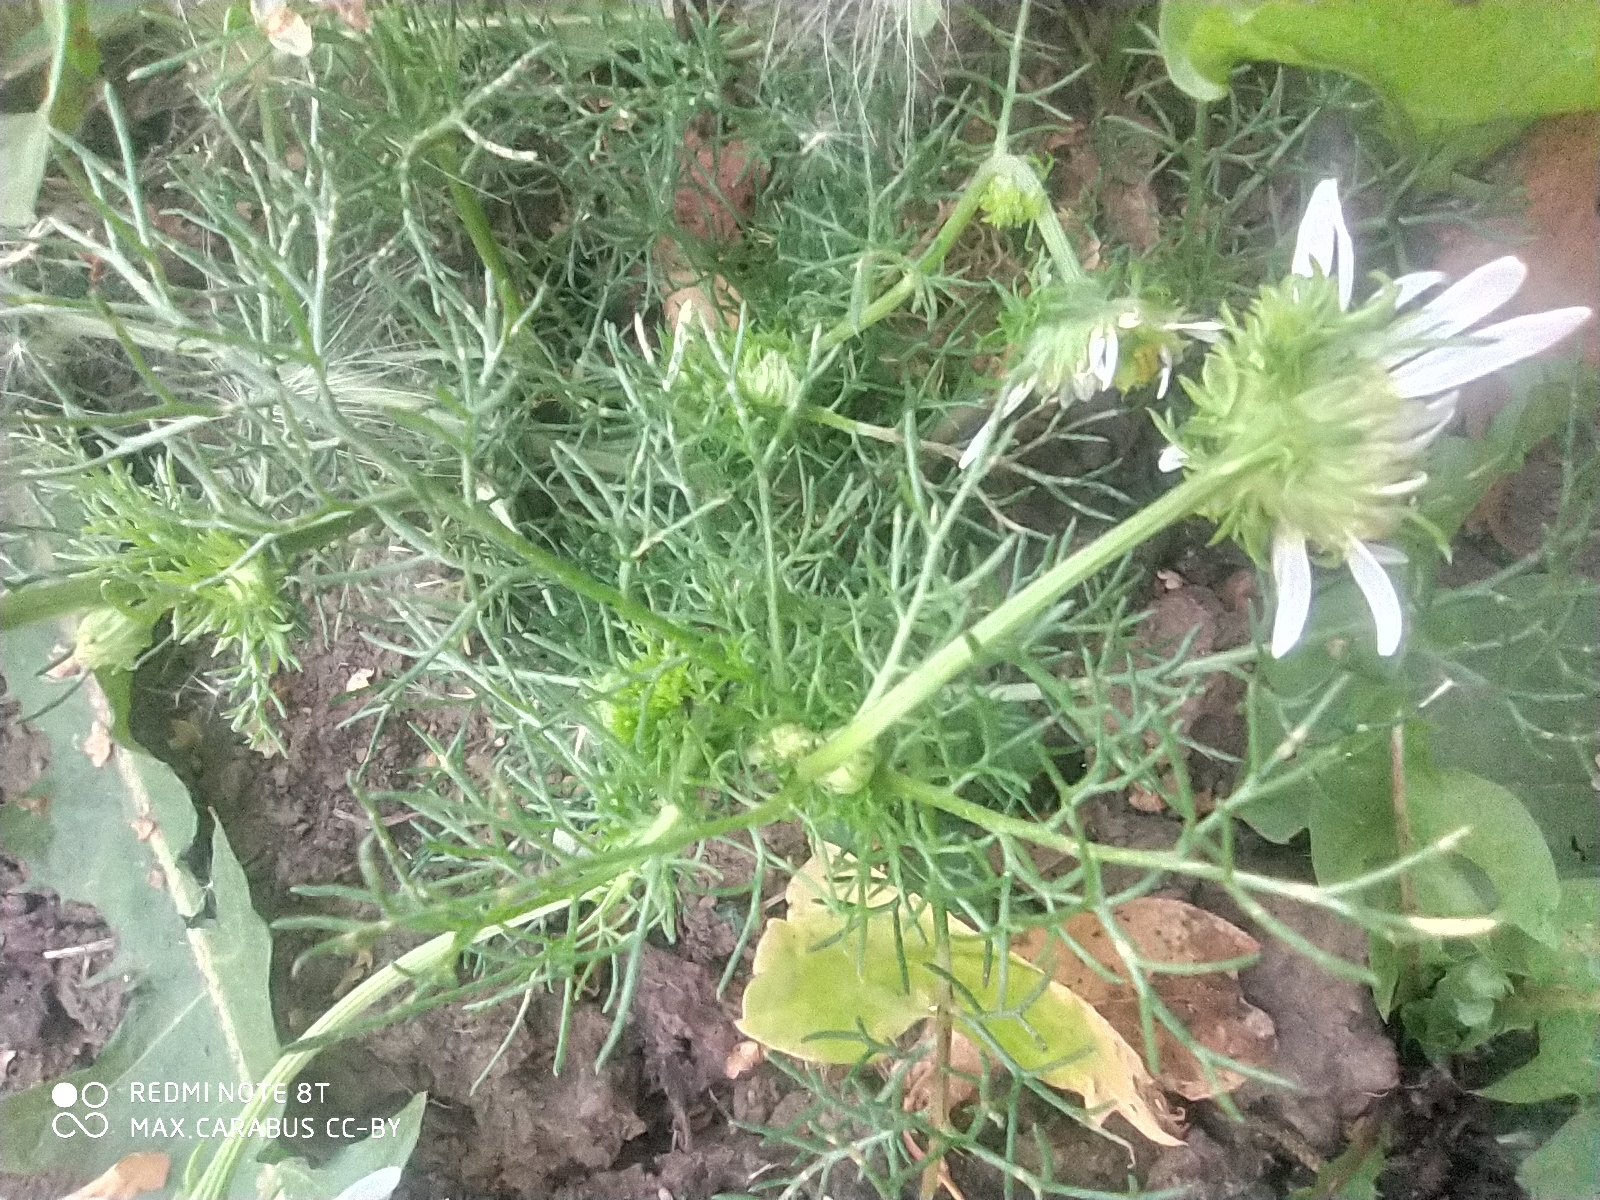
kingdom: Plantae
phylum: Tracheophyta
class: Magnoliopsida
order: Asterales
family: Asteraceae
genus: Tripleurospermum
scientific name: Tripleurospermum inodorum
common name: Scentless mayweed
